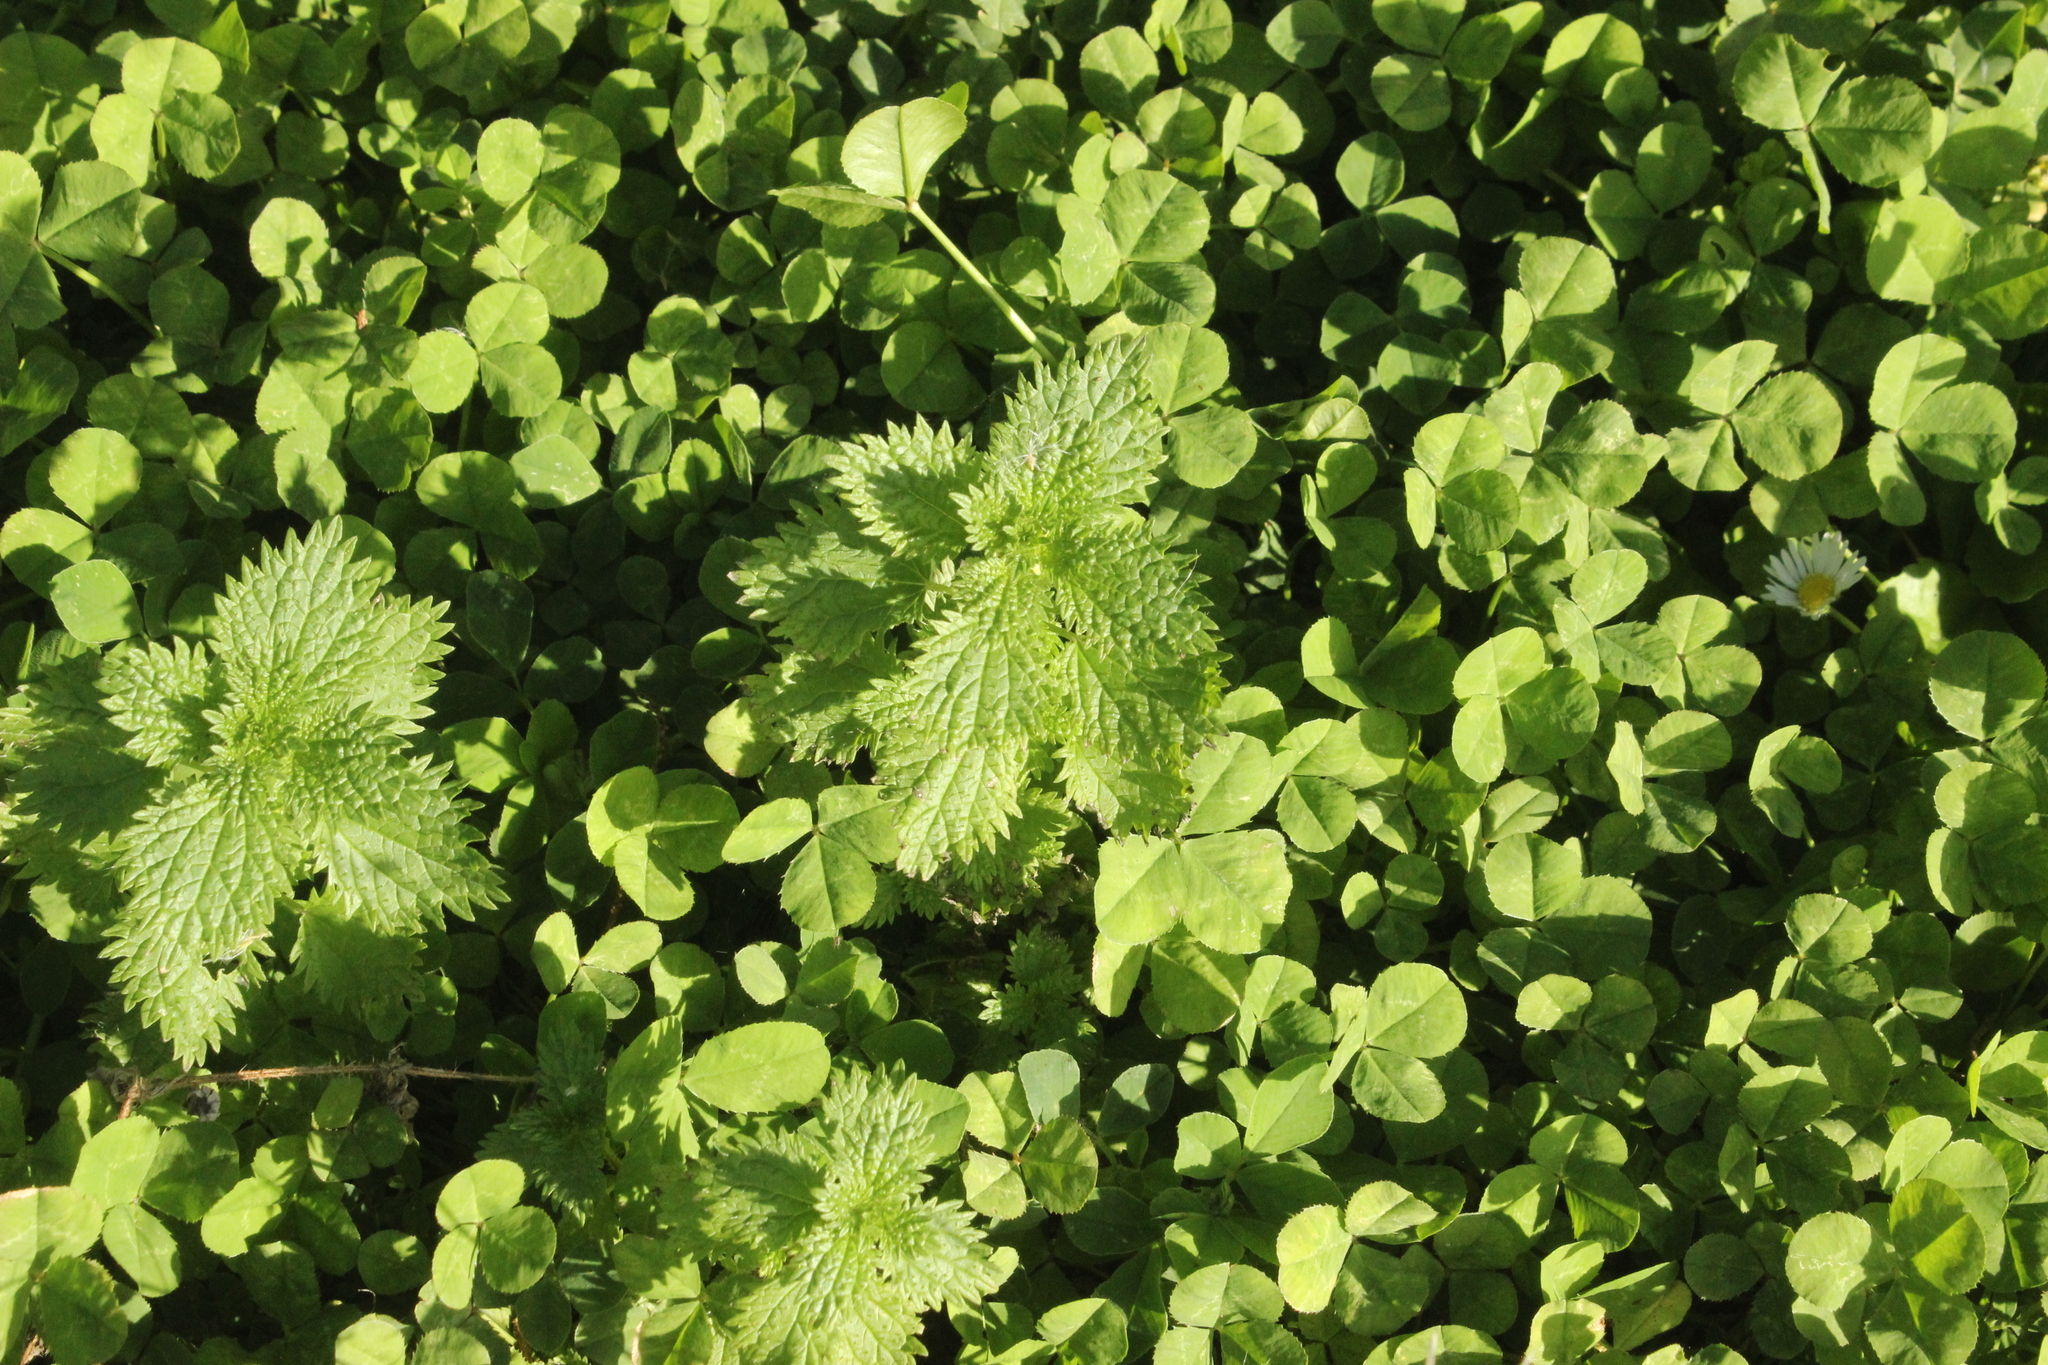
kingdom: Plantae
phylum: Tracheophyta
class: Magnoliopsida
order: Rosales
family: Urticaceae
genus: Urtica
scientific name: Urtica urens
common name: Dwarf nettle
